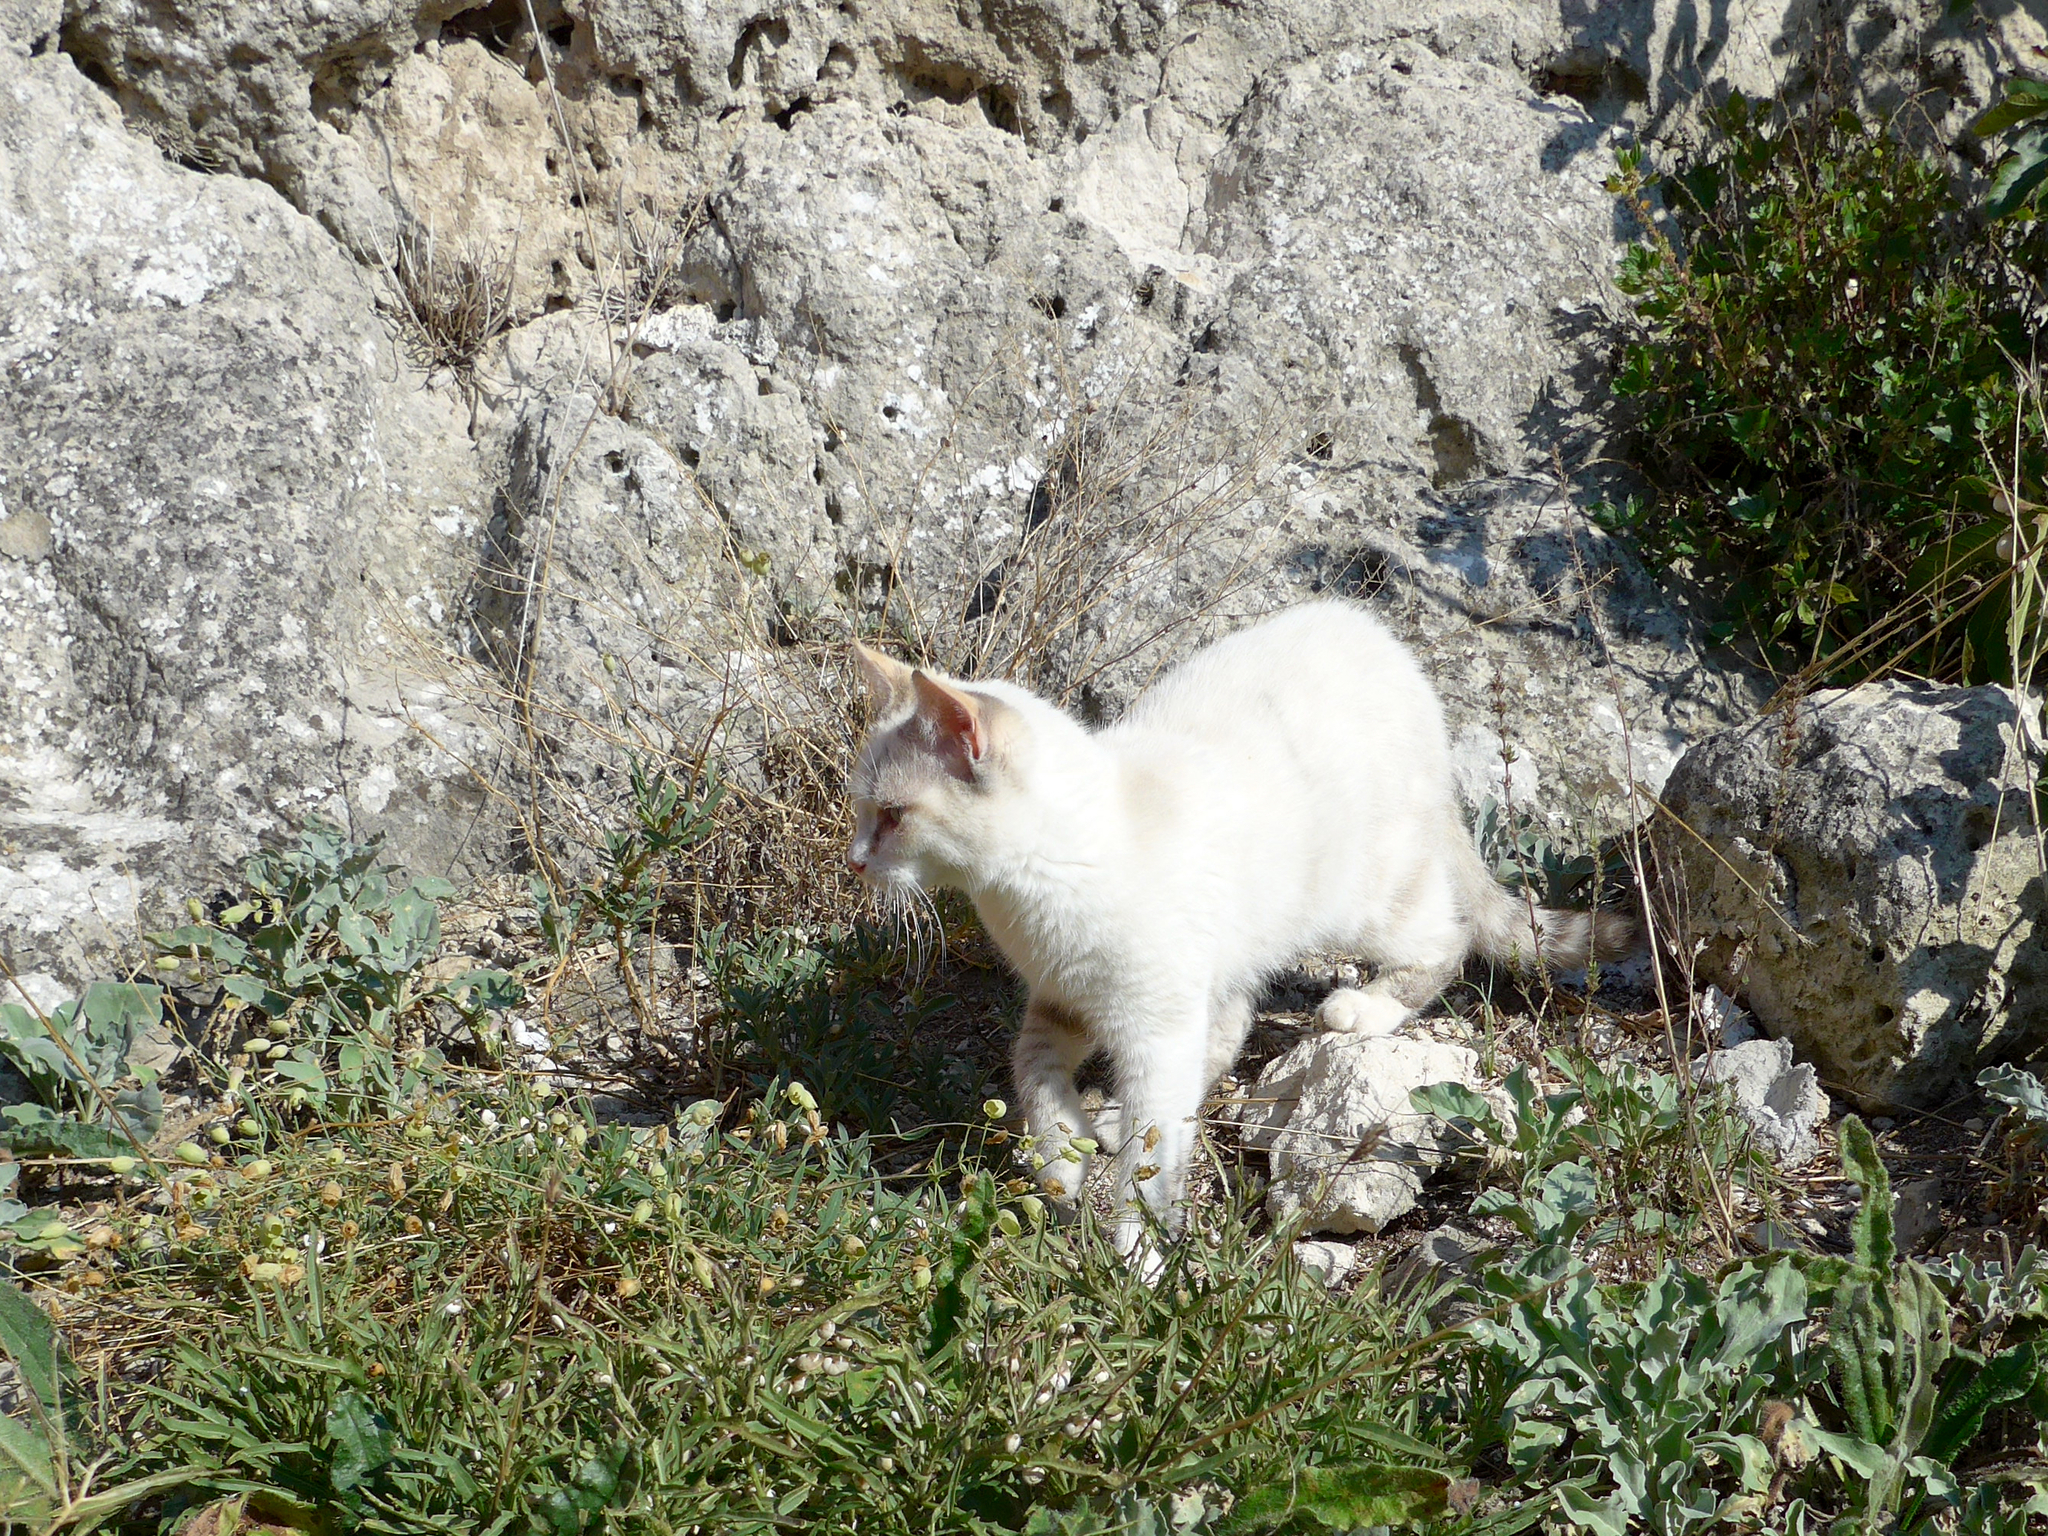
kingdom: Animalia
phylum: Chordata
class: Mammalia
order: Carnivora
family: Felidae
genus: Felis
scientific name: Felis catus
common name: Domestic cat
